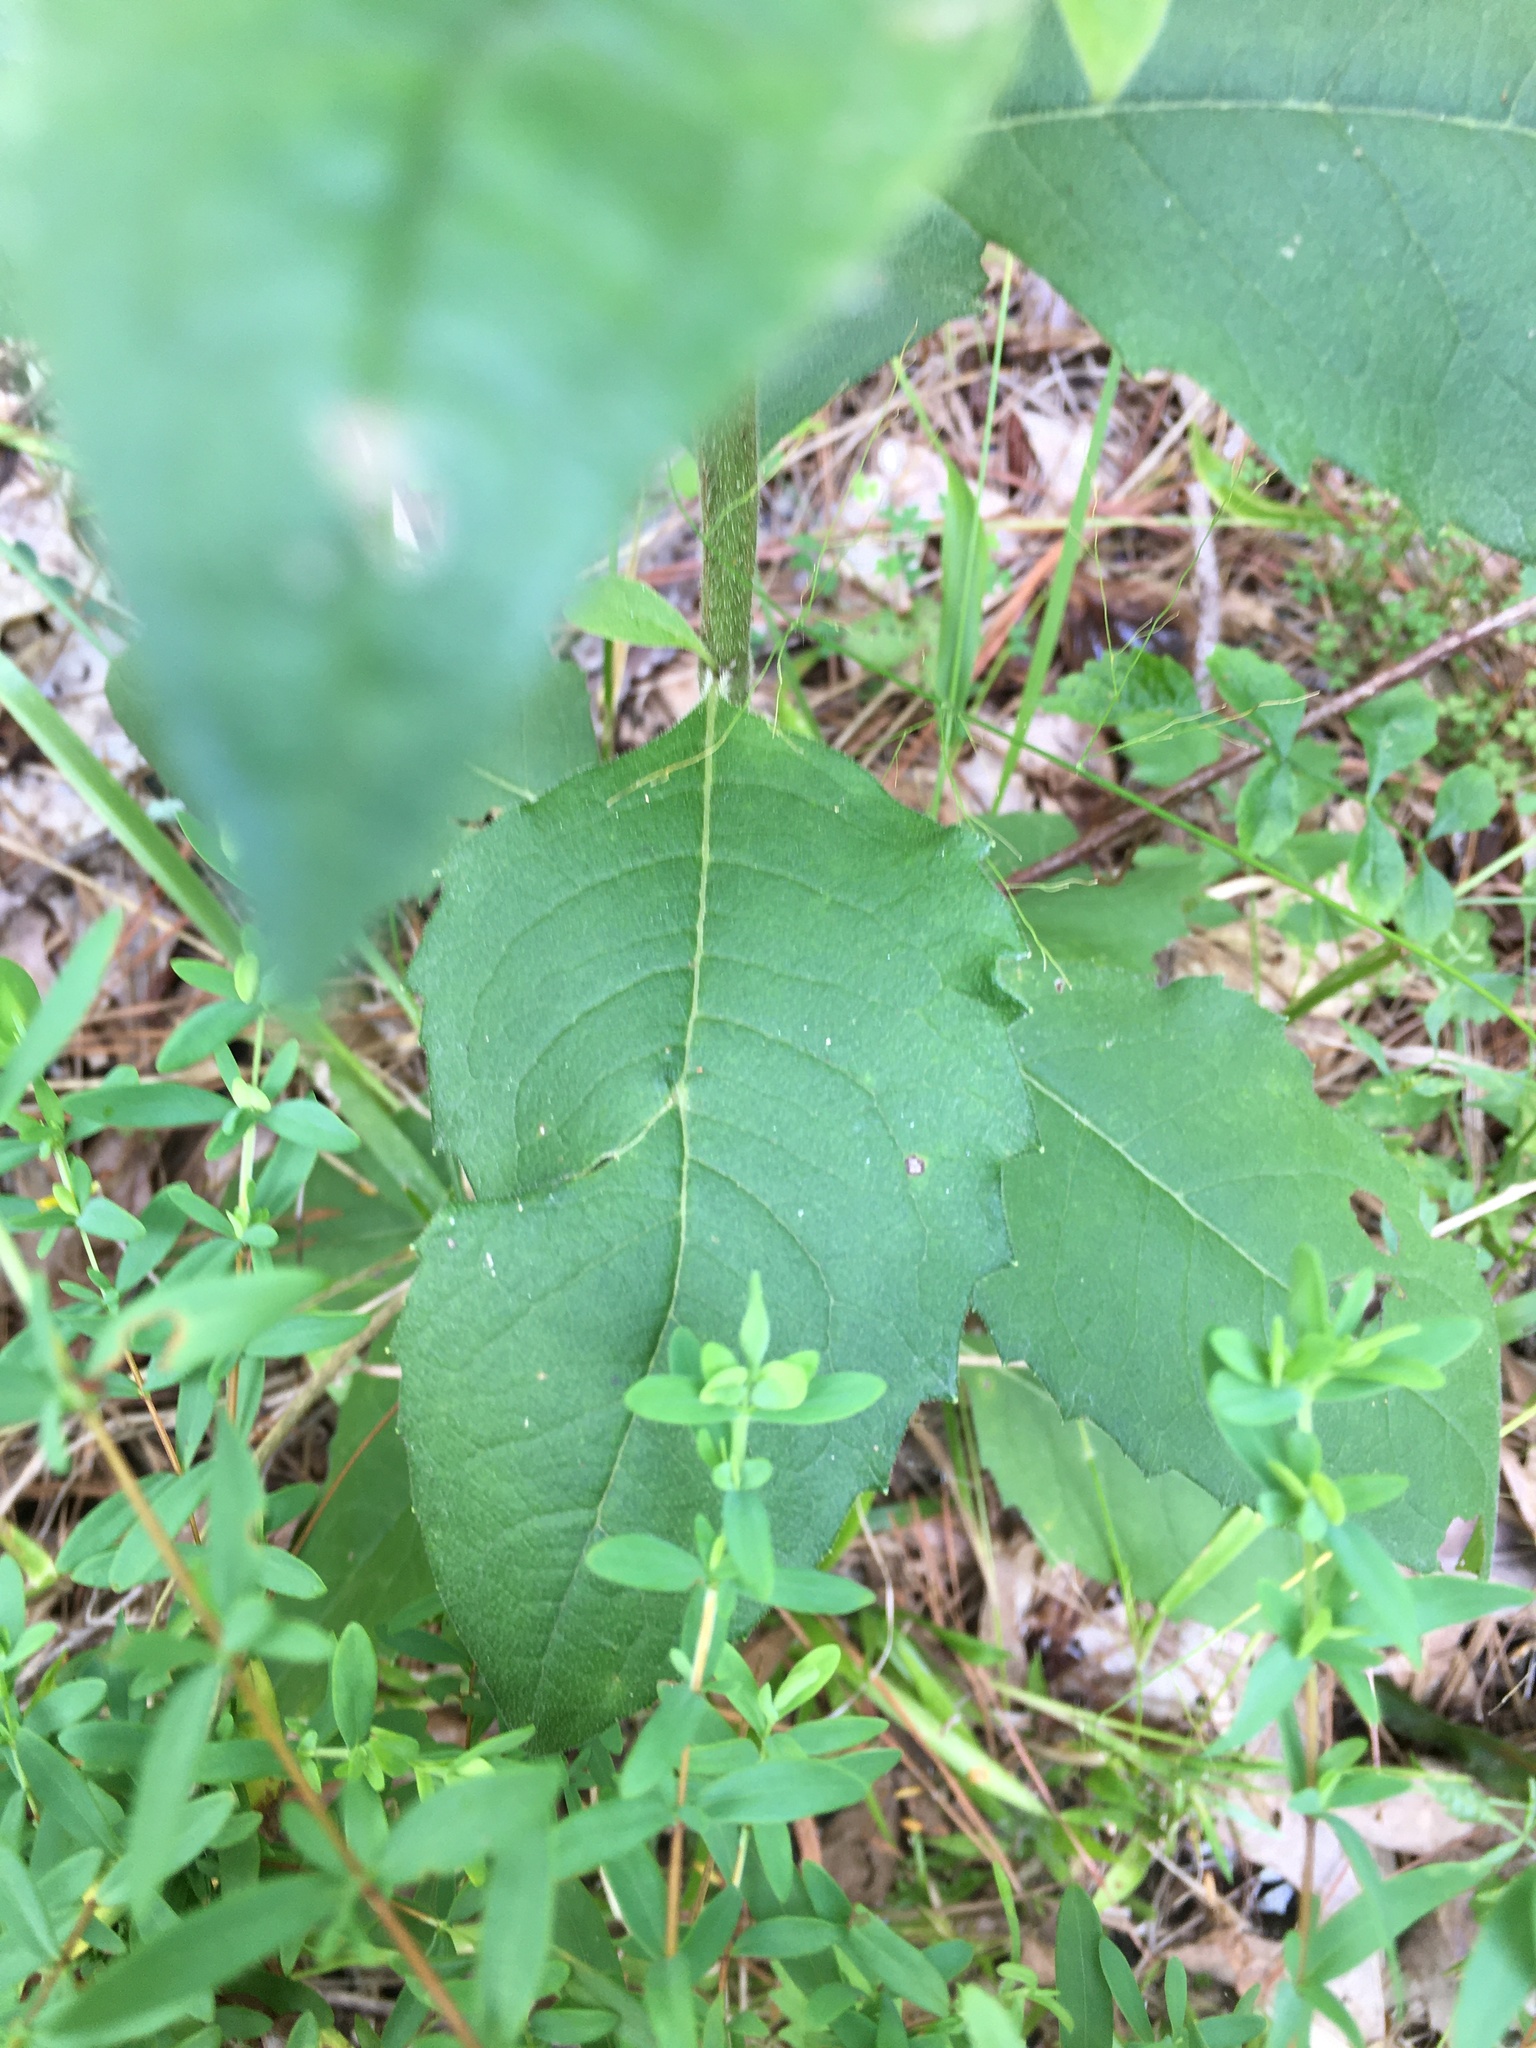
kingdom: Plantae
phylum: Tracheophyta
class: Magnoliopsida
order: Asterales
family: Asteraceae
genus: Silphium
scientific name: Silphium asteriscus
